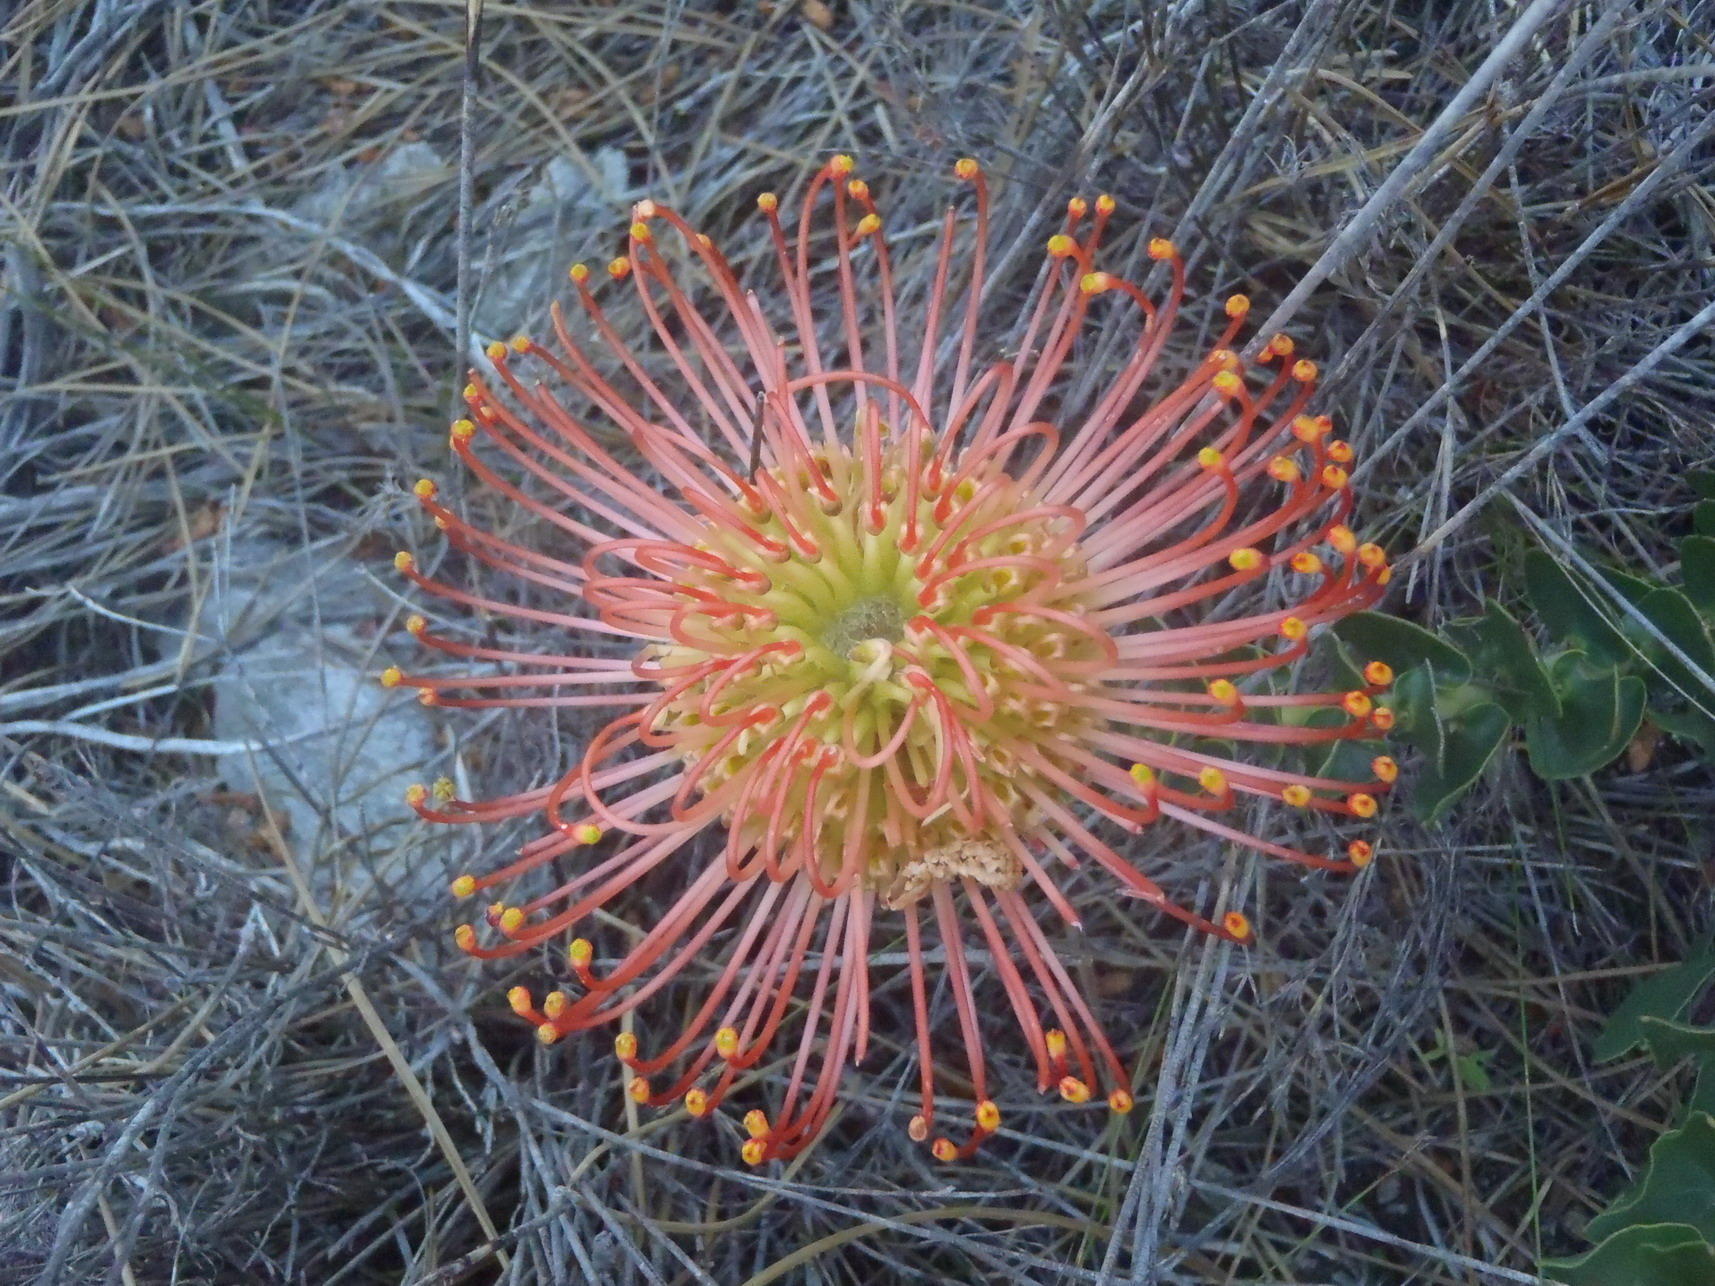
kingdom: Plantae
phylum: Tracheophyta
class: Magnoliopsida
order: Proteales
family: Proteaceae
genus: Leucospermum
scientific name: Leucospermum cordifolium
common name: Red pincushion-protea
